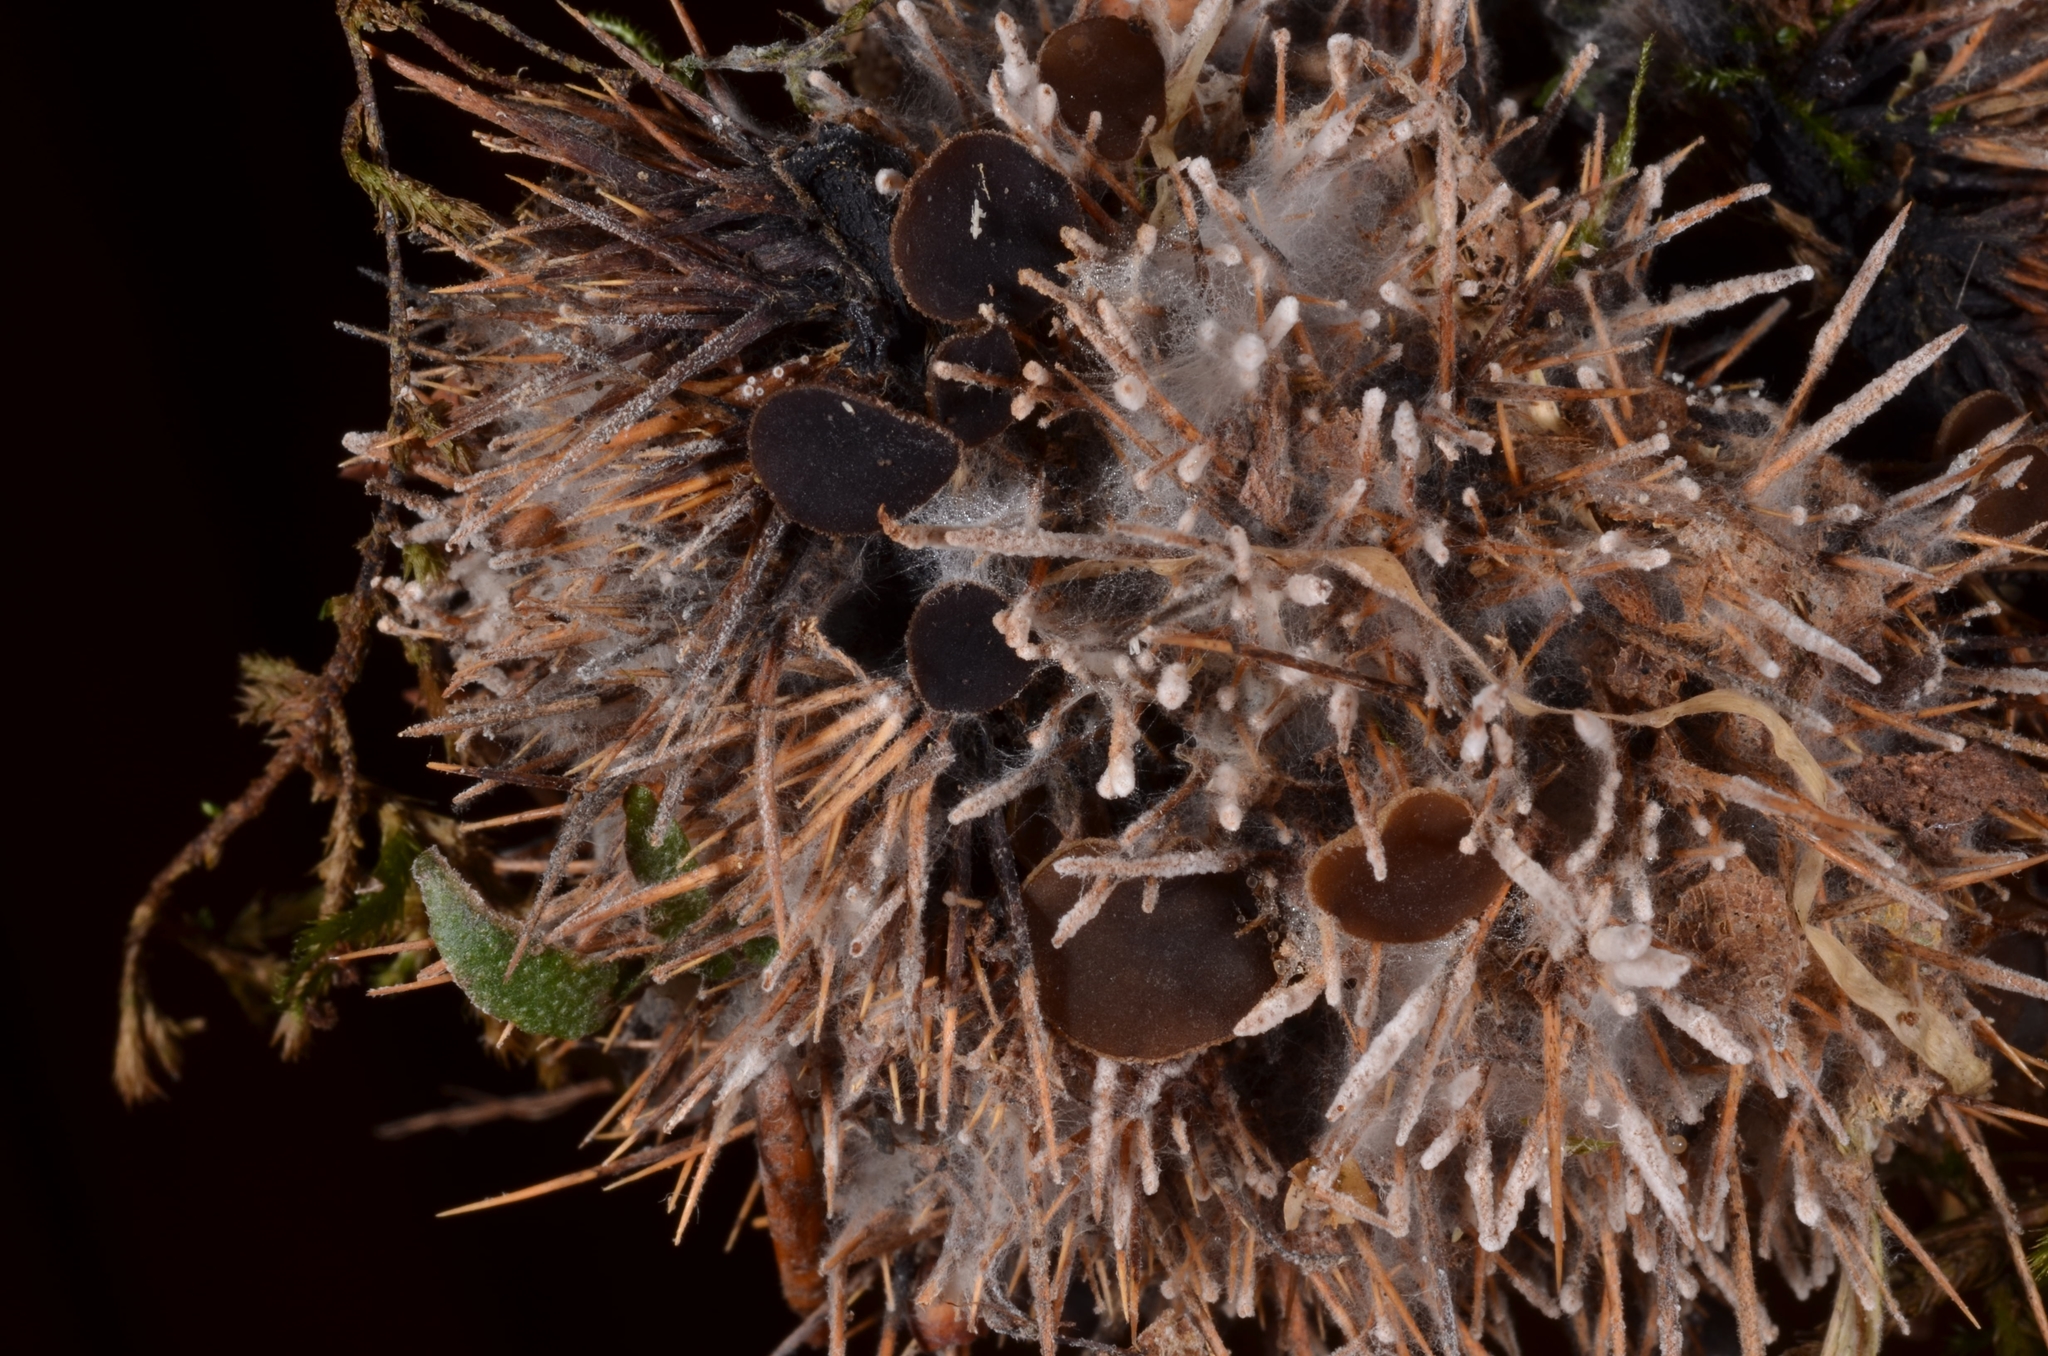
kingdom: Fungi
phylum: Ascomycota
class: Leotiomycetes
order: Helotiales
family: Rutstroemiaceae
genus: Lanzia
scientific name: Lanzia echinophila
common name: Hairy nuts disco
